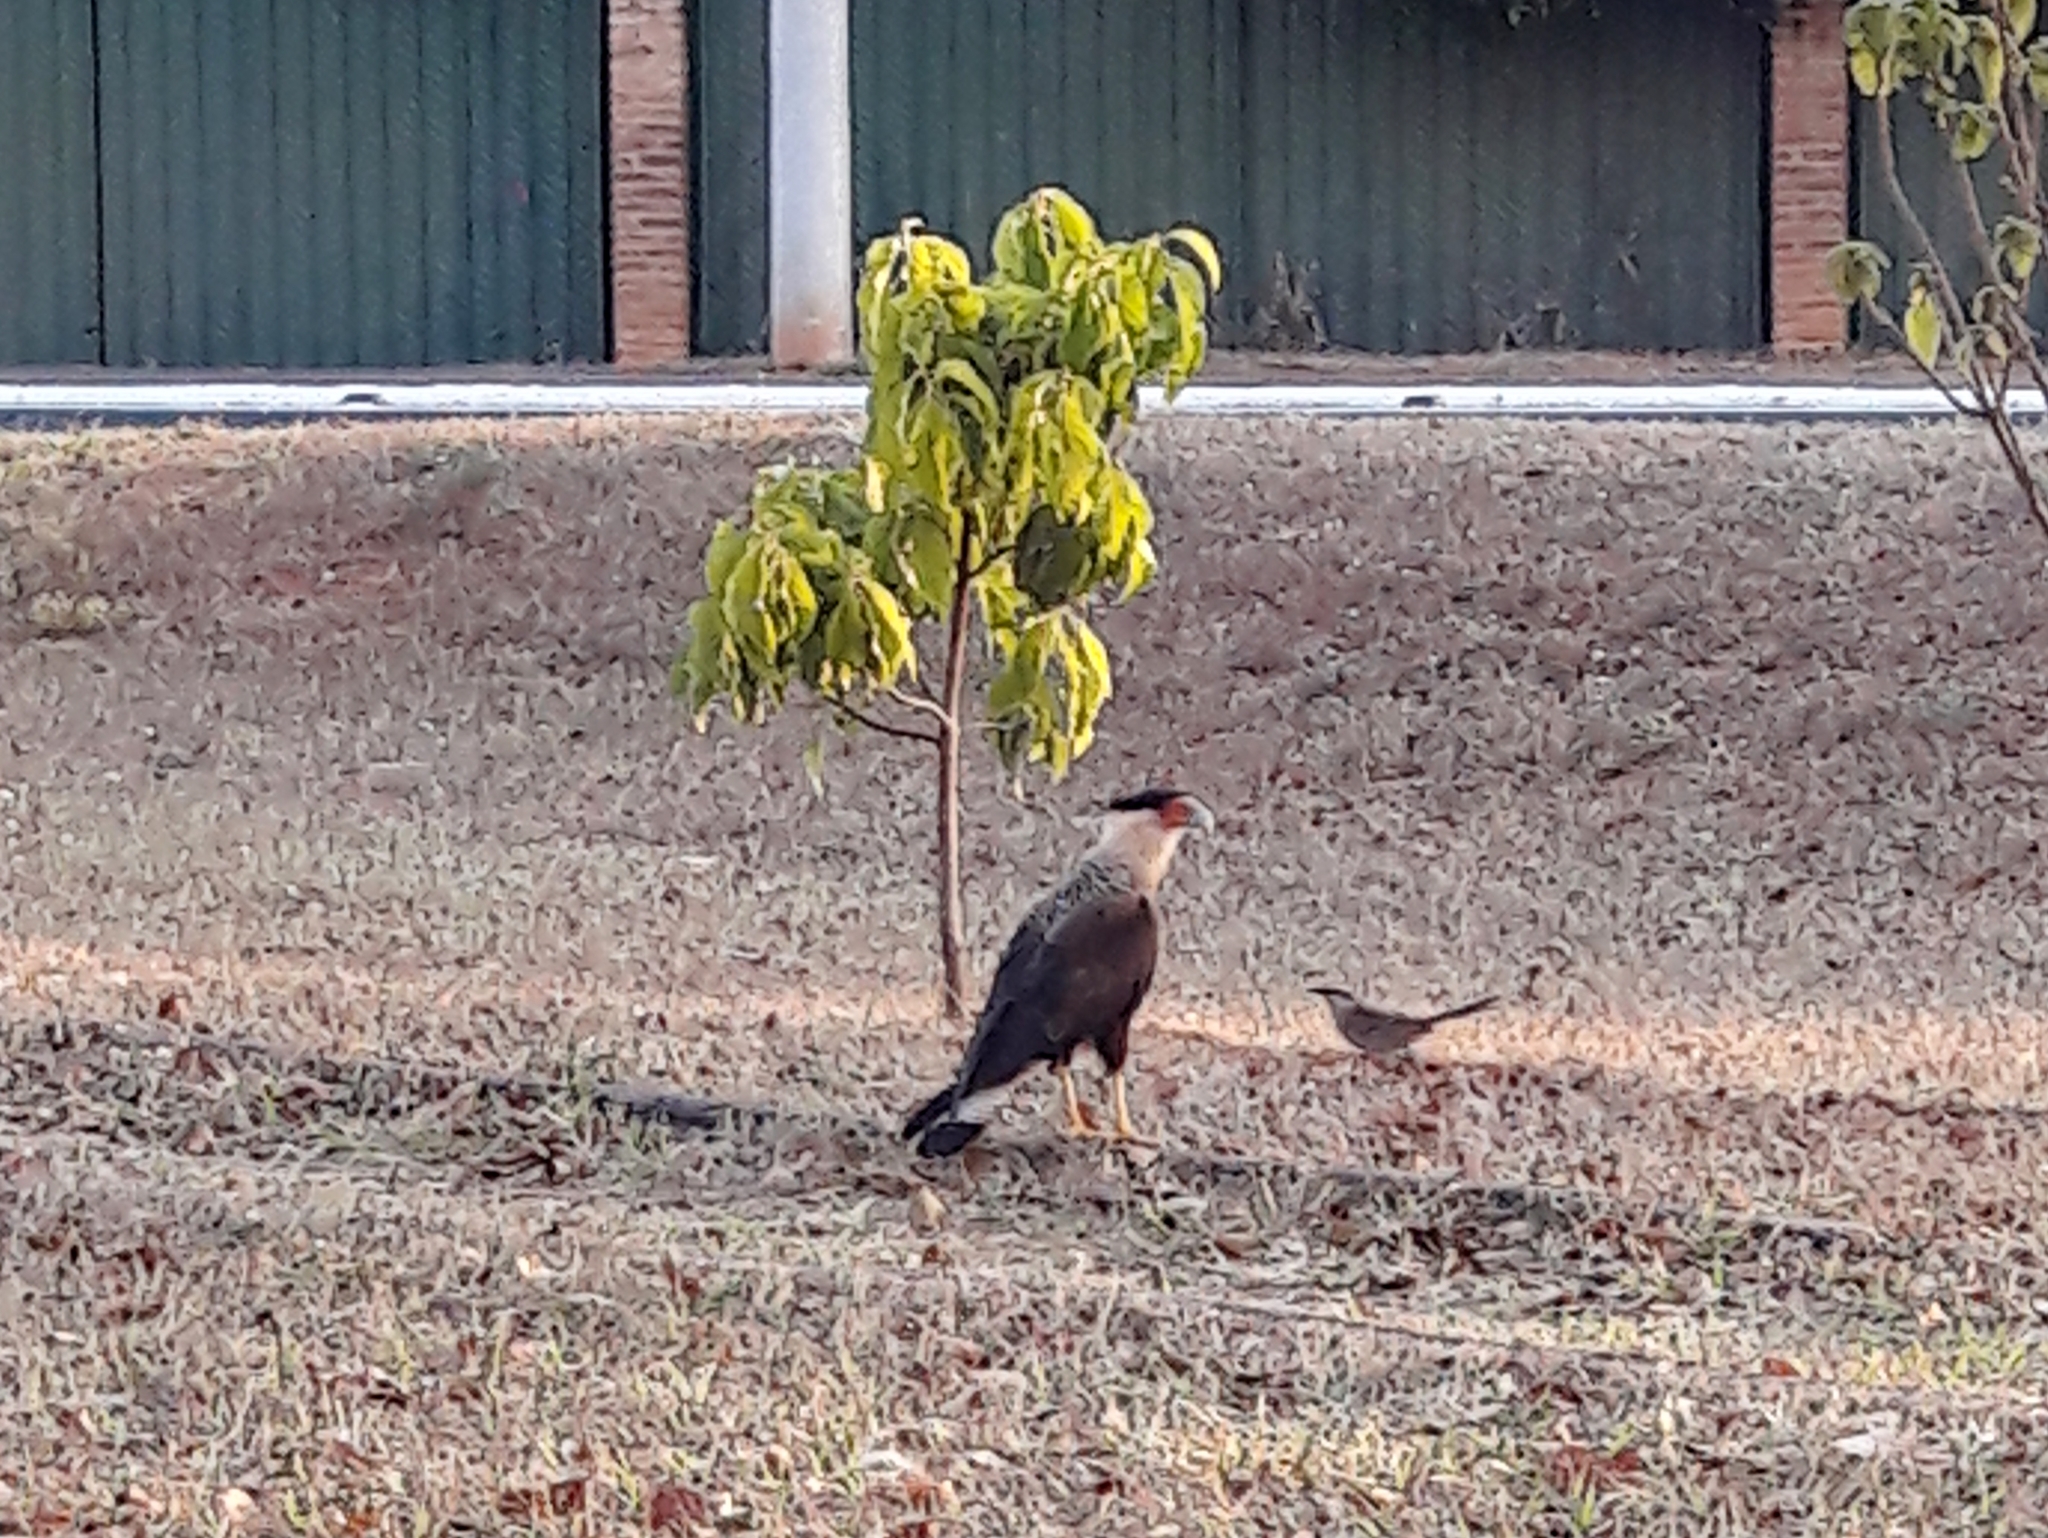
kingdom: Animalia
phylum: Chordata
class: Aves
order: Falconiformes
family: Falconidae
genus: Caracara
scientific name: Caracara plancus
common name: Southern caracara
